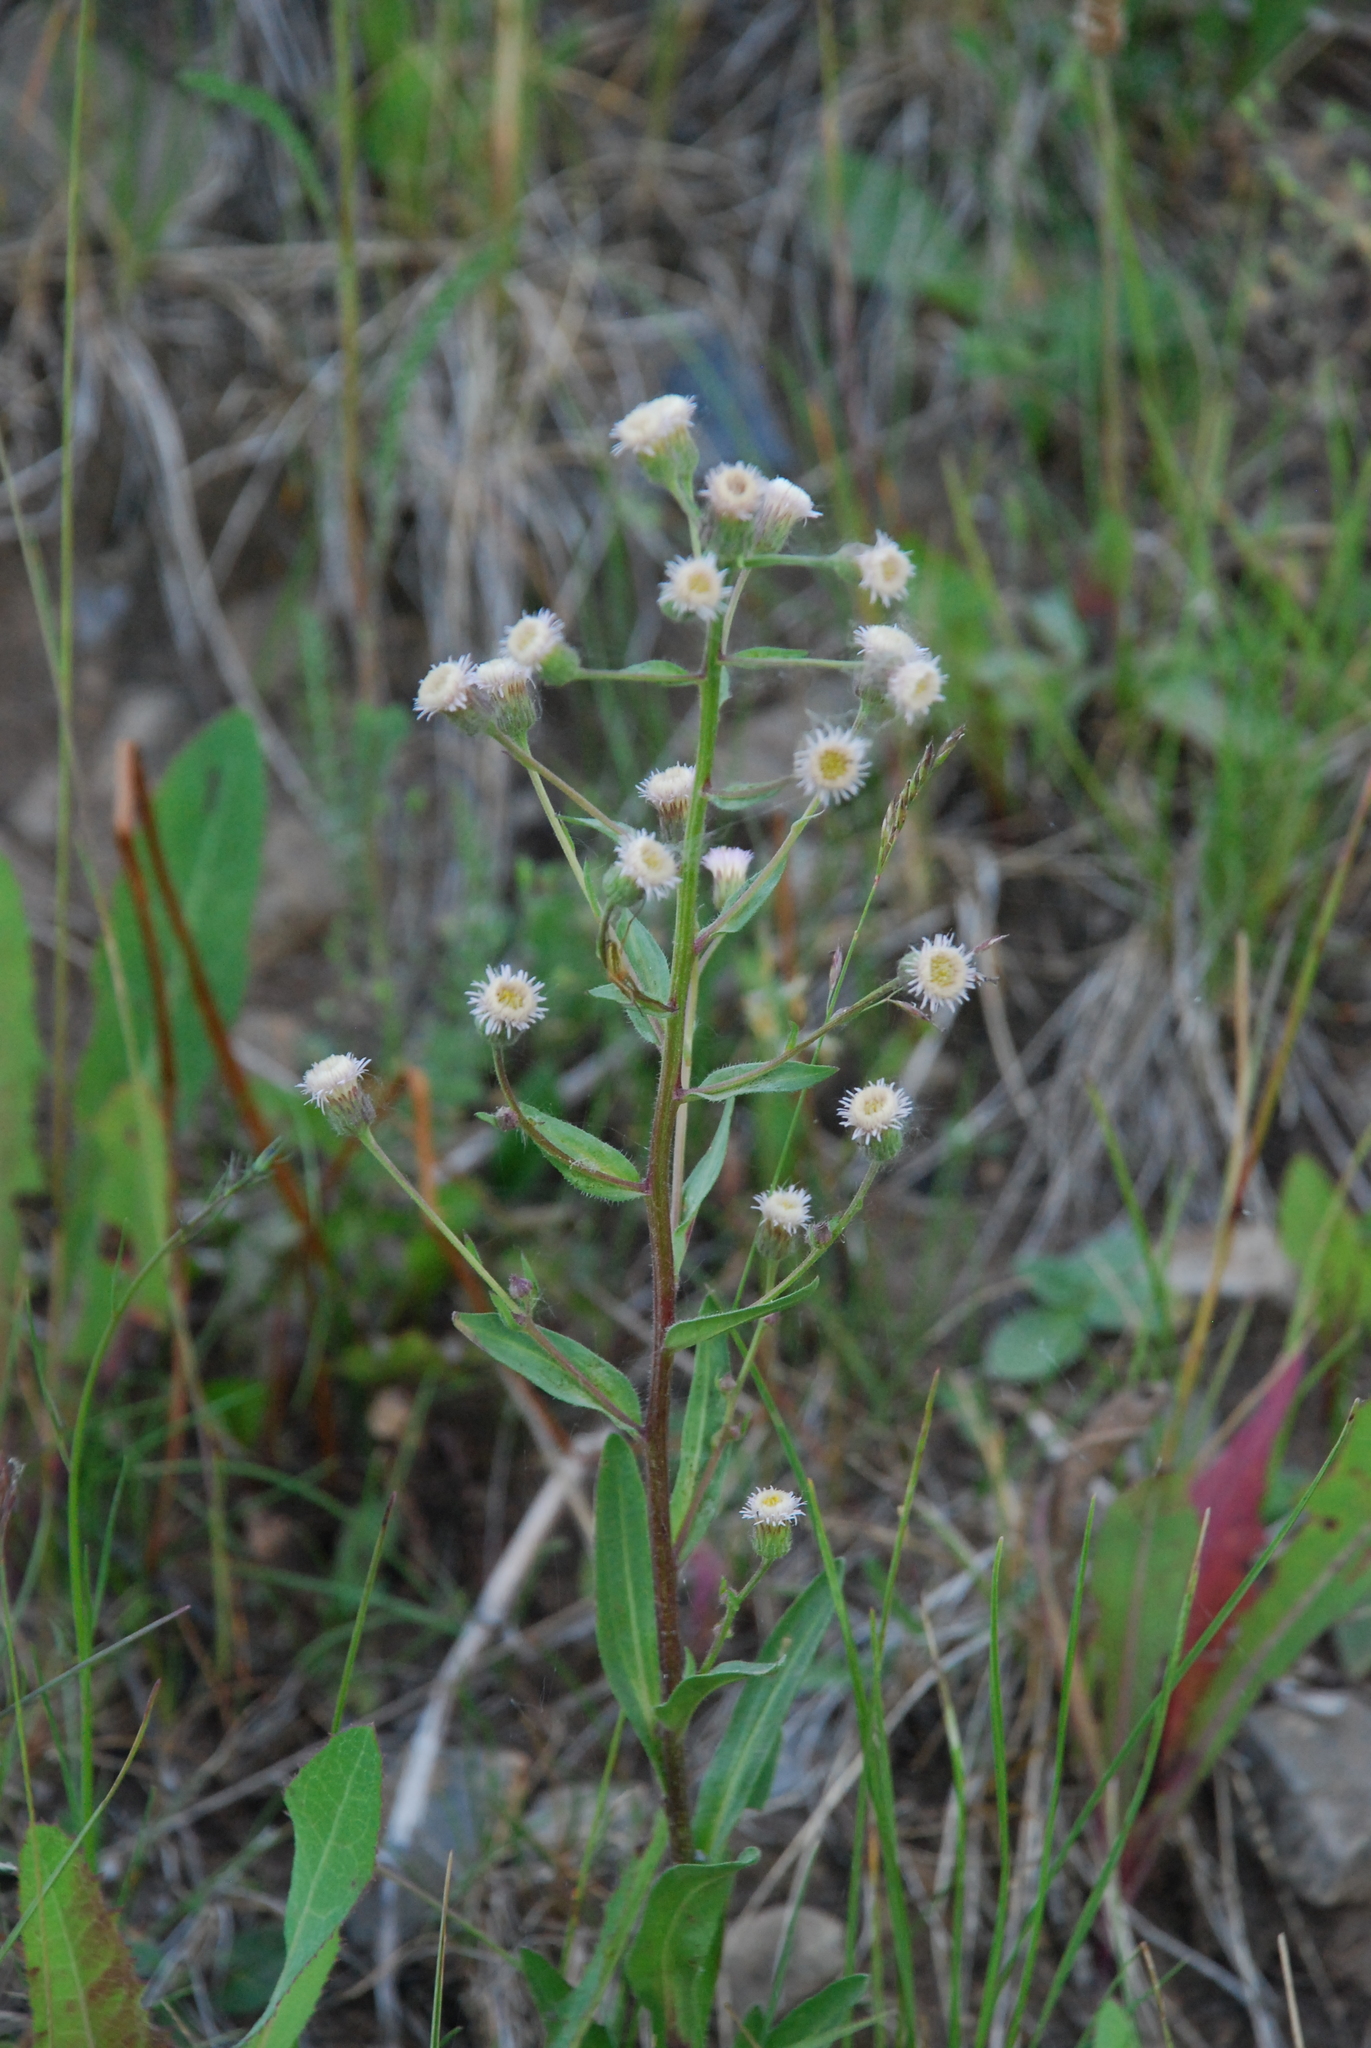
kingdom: Plantae
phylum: Tracheophyta
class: Magnoliopsida
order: Asterales
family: Asteraceae
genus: Erigeron
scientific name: Erigeron acris
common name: Blue fleabane
